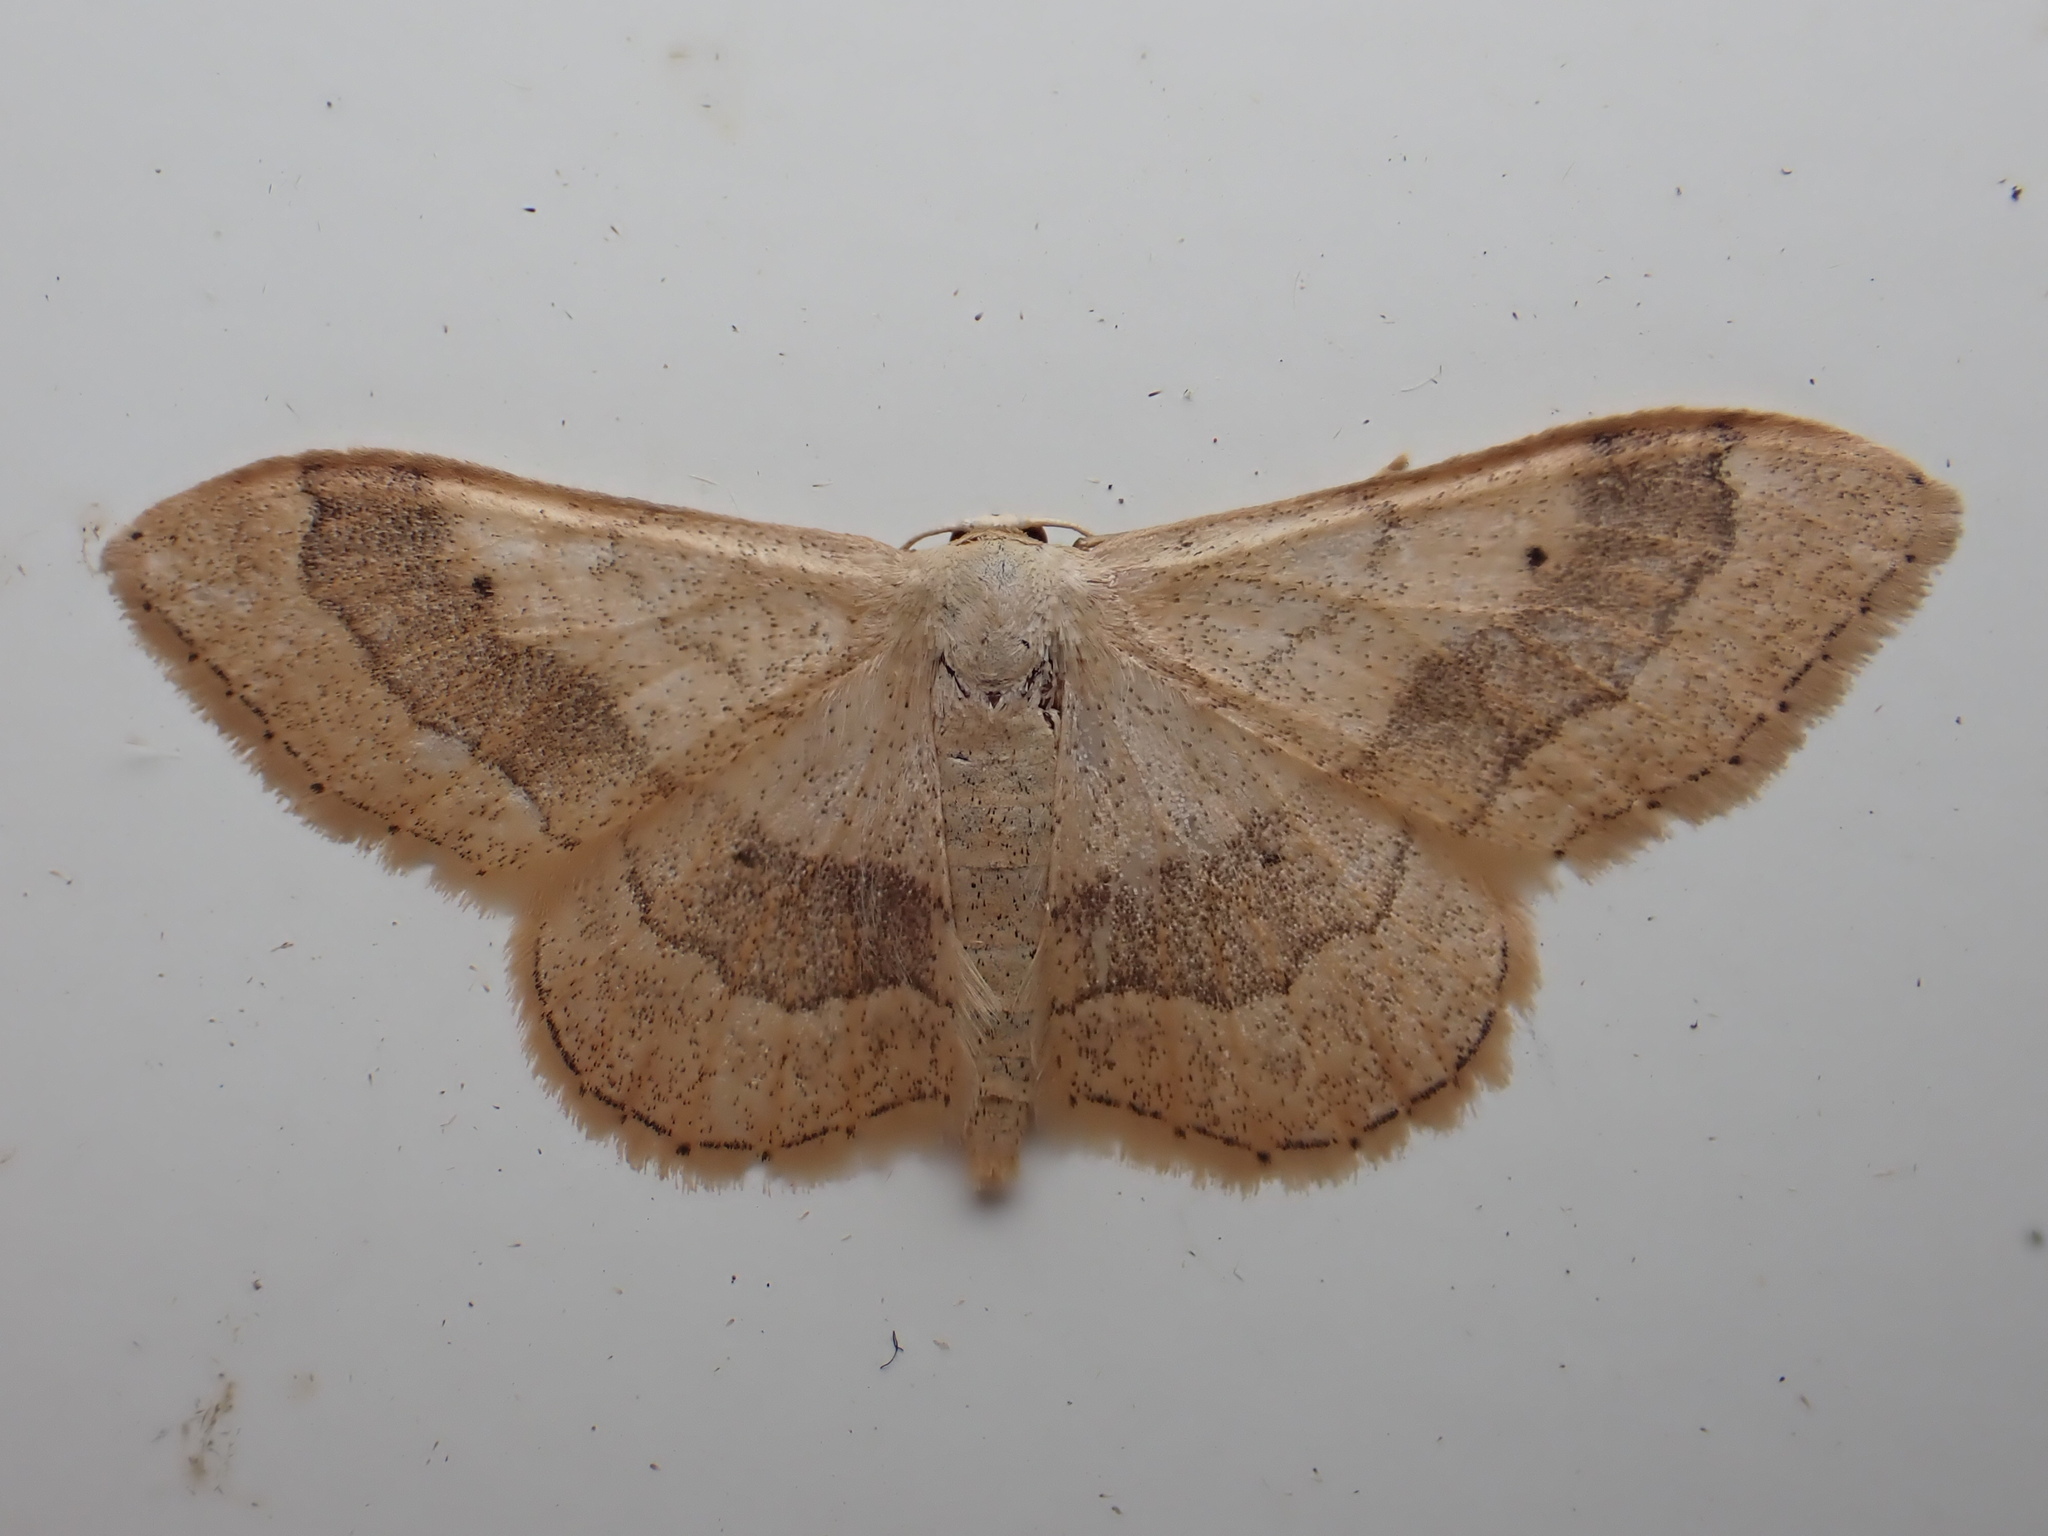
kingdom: Animalia
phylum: Arthropoda
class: Insecta
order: Lepidoptera
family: Geometridae
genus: Idaea
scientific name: Idaea aversata
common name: Riband wave
